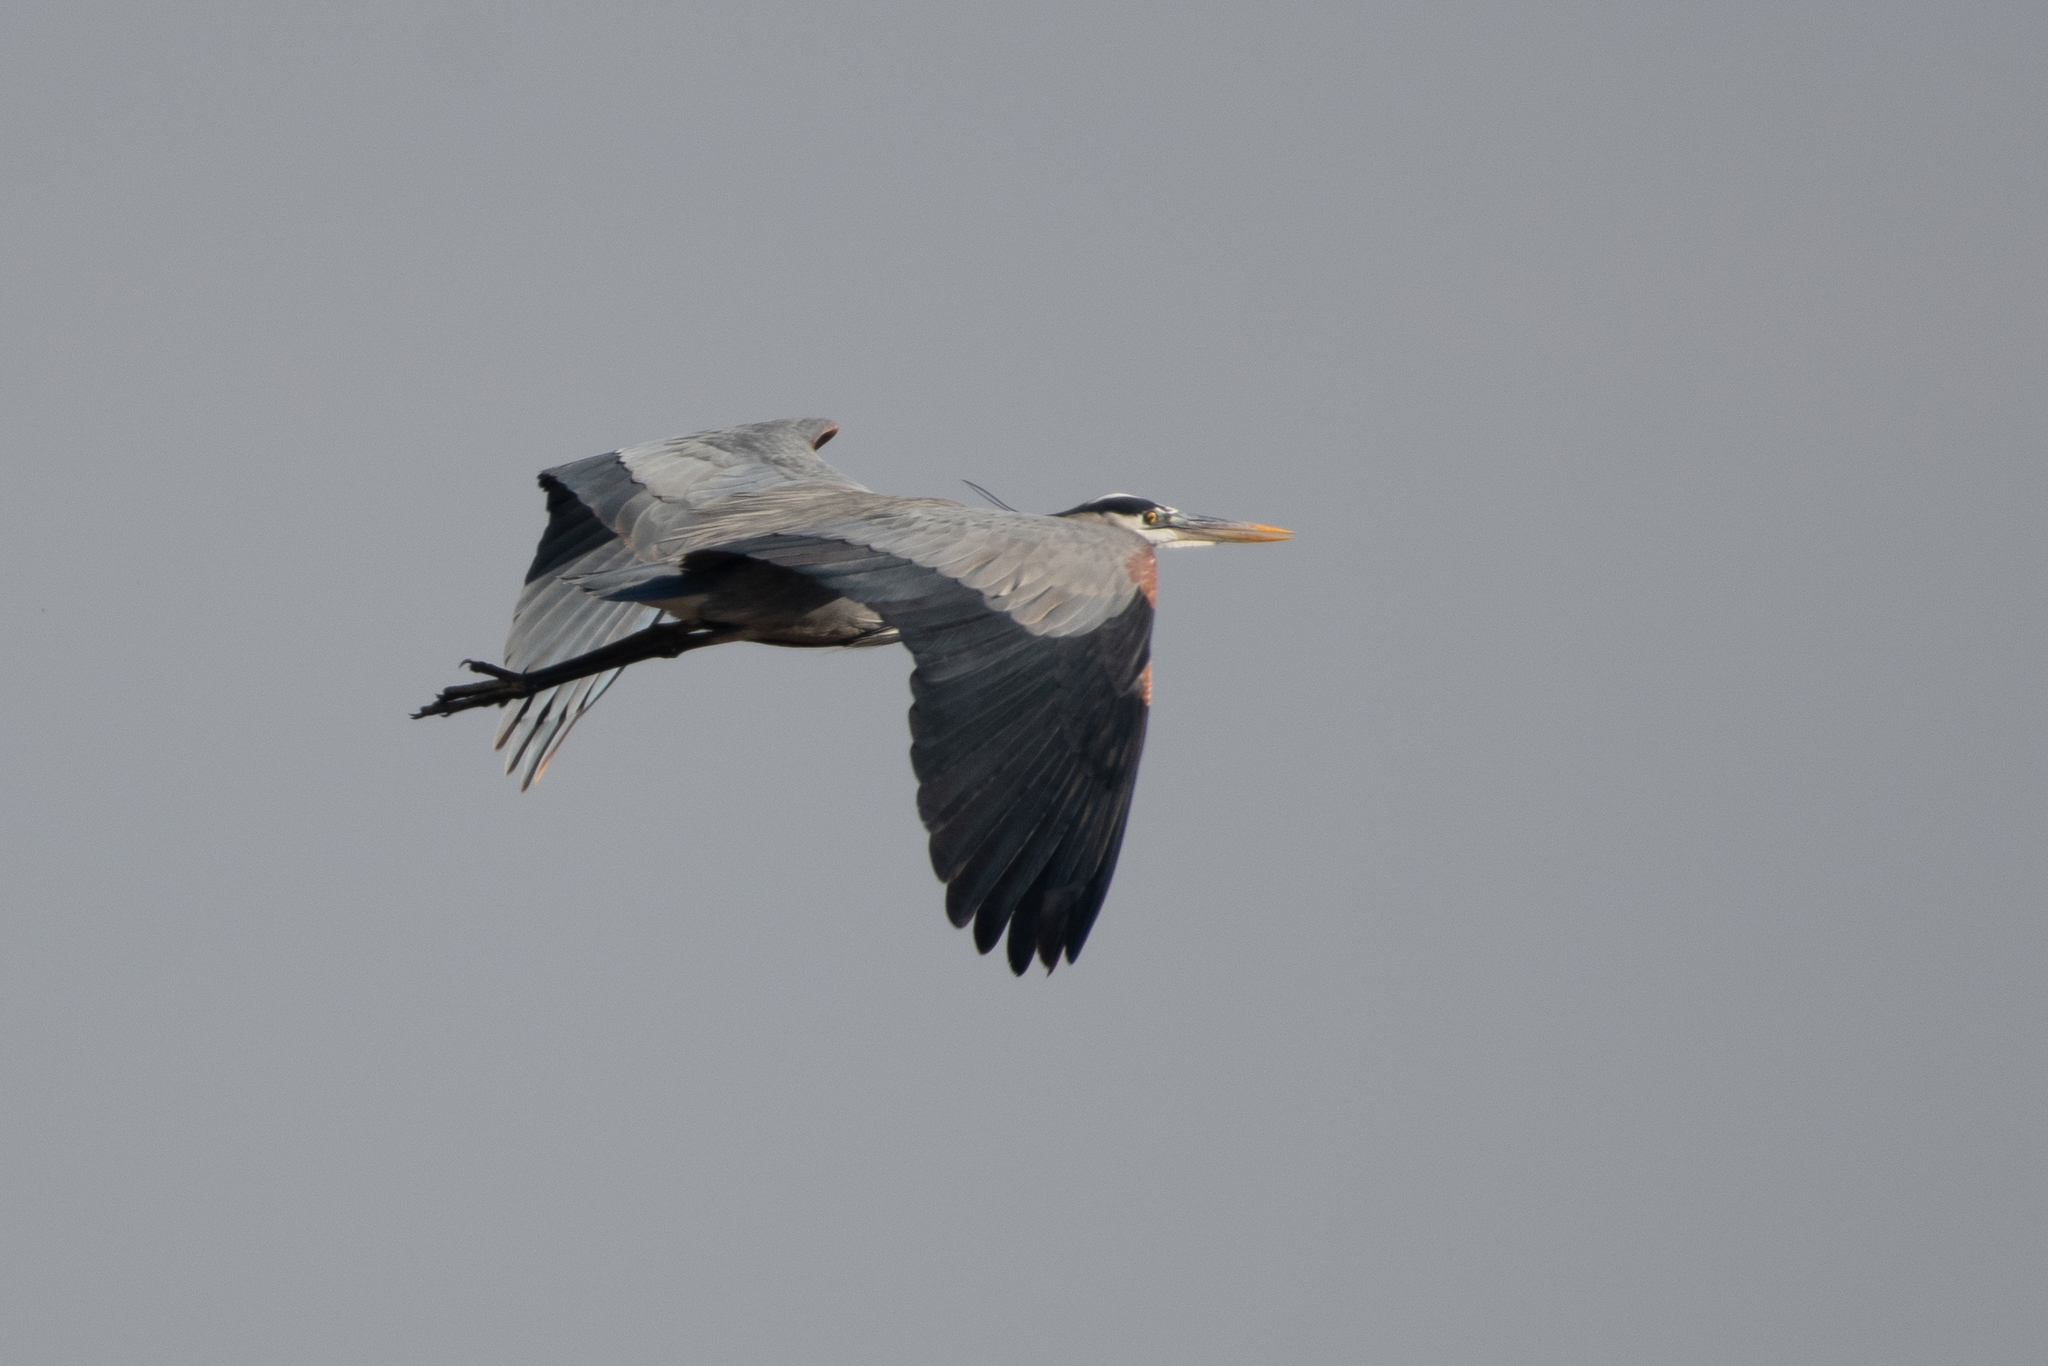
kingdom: Animalia
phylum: Chordata
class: Aves
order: Pelecaniformes
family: Ardeidae
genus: Ardea
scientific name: Ardea herodias
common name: Great blue heron
